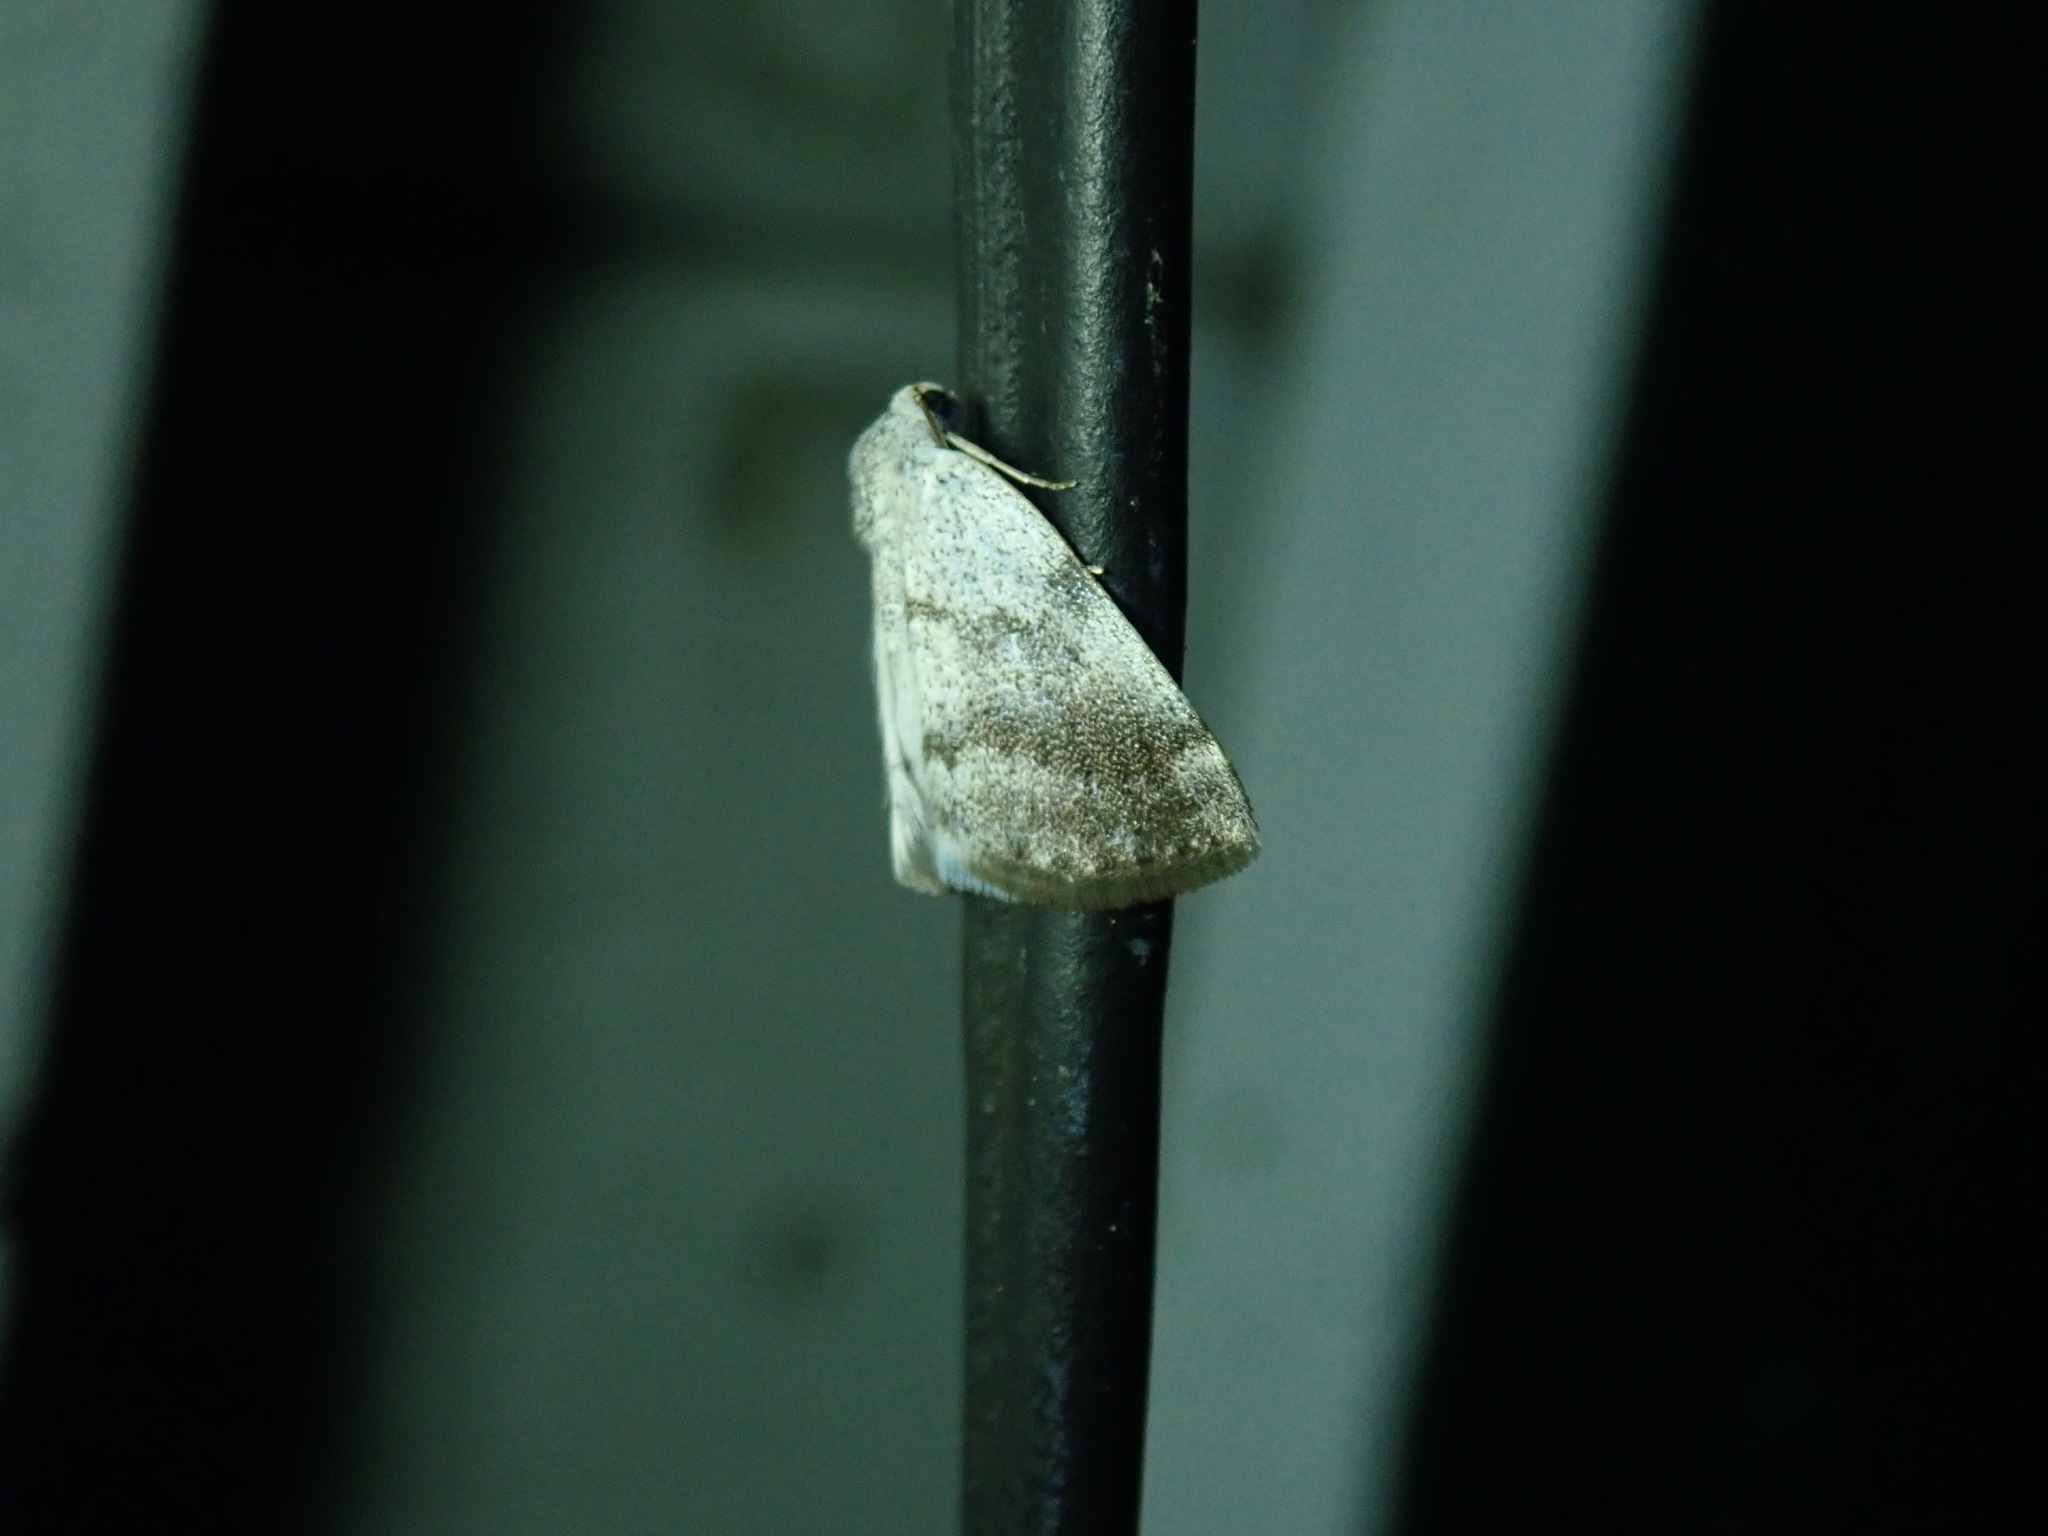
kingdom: Animalia
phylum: Arthropoda
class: Insecta
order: Lepidoptera
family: Geometridae
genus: Lomographa
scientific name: Lomographa semiclarata
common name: Bluish spring moth
